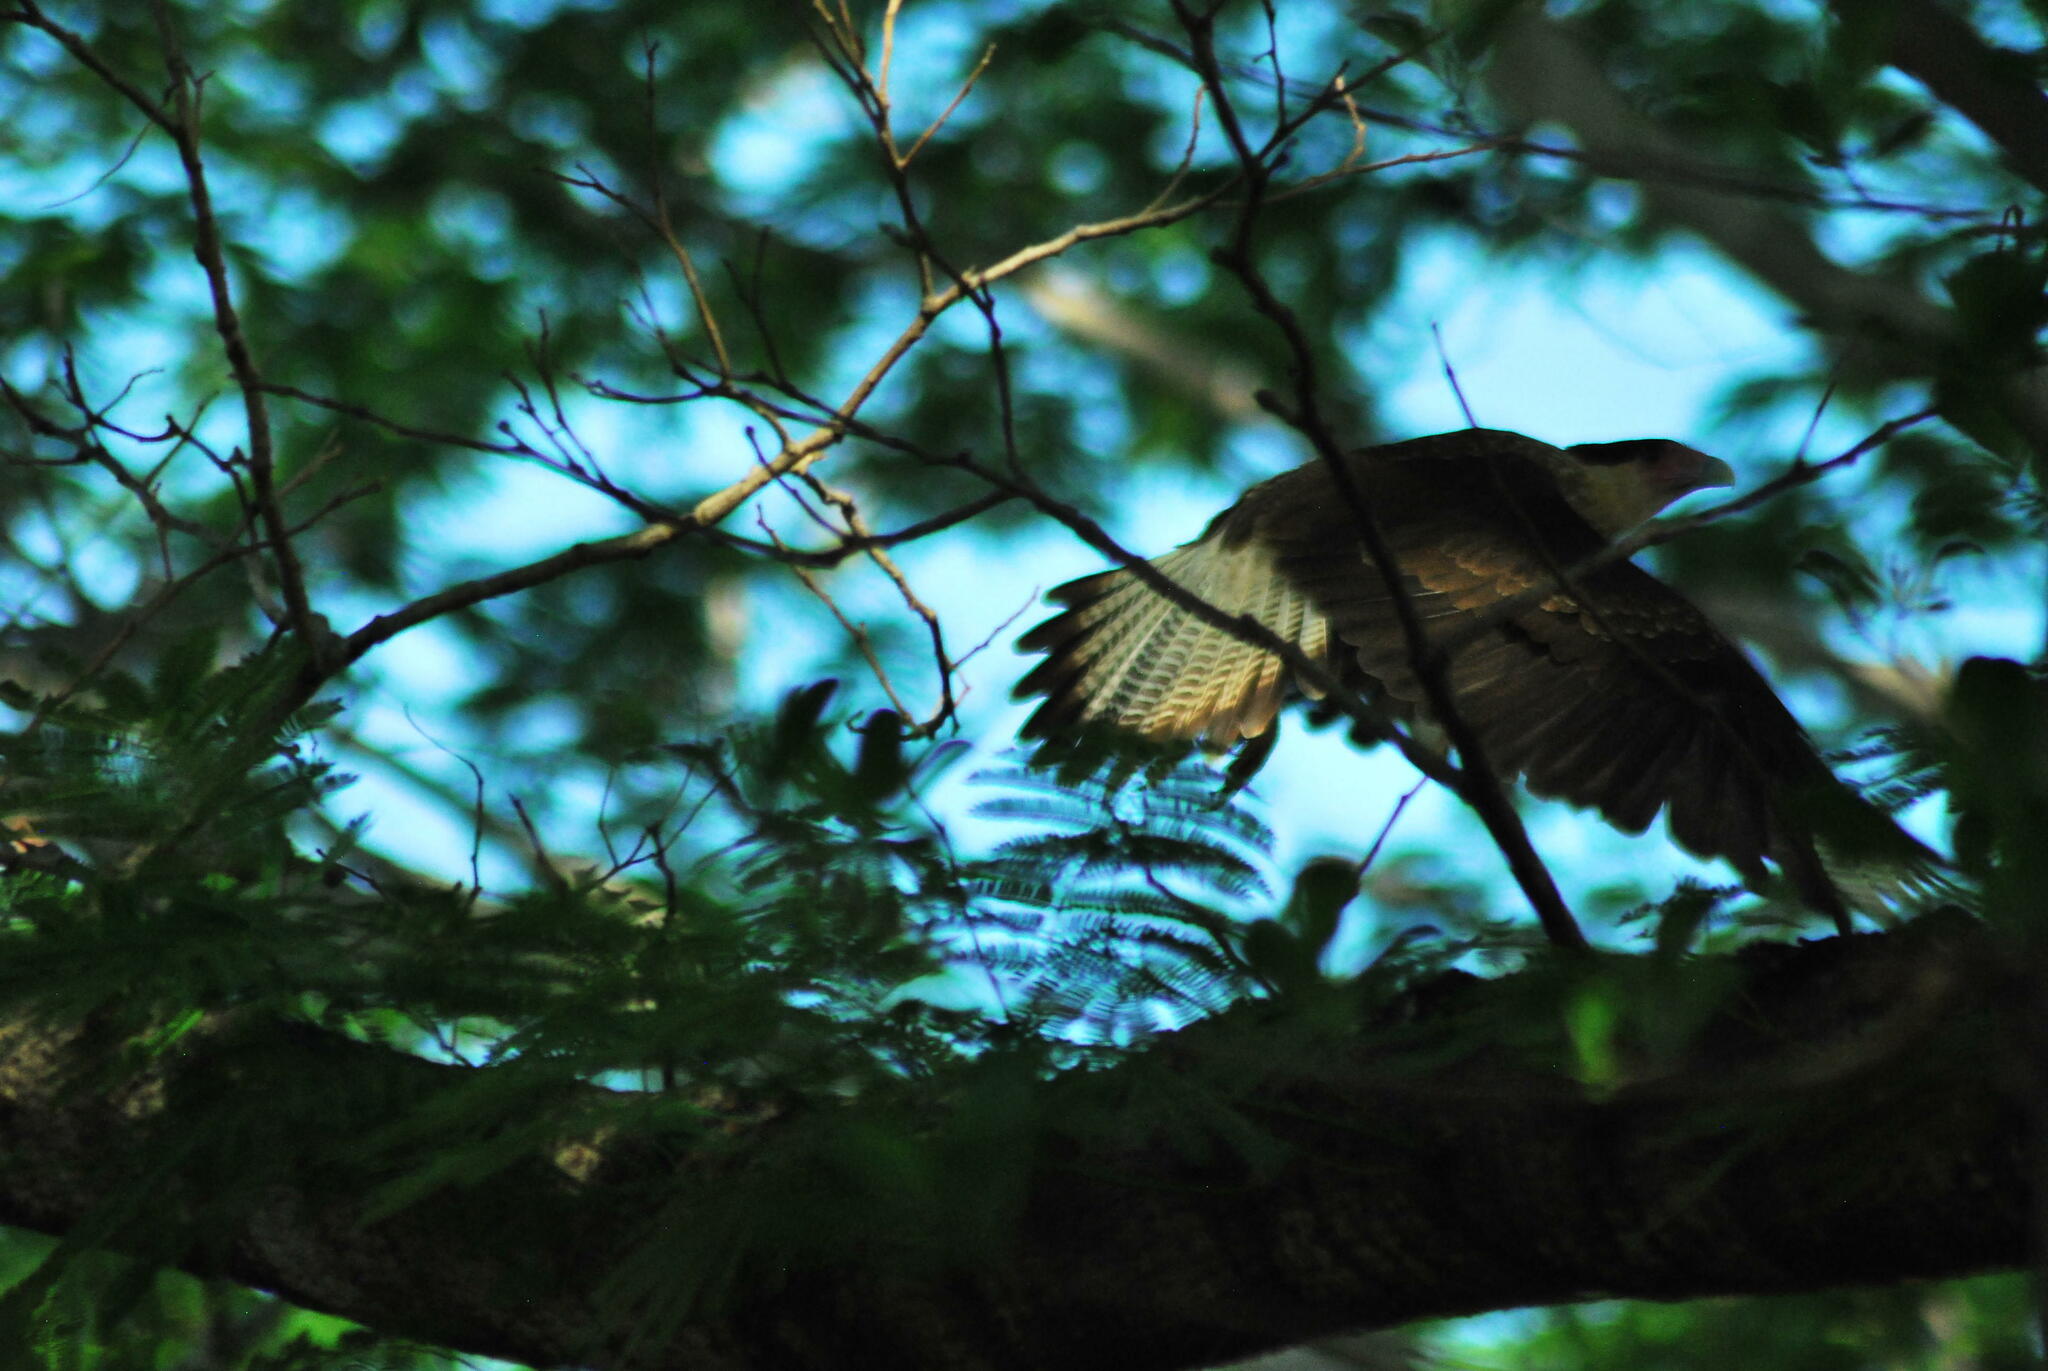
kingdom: Animalia
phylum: Chordata
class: Aves
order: Falconiformes
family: Falconidae
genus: Caracara
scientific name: Caracara plancus
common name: Southern caracara
